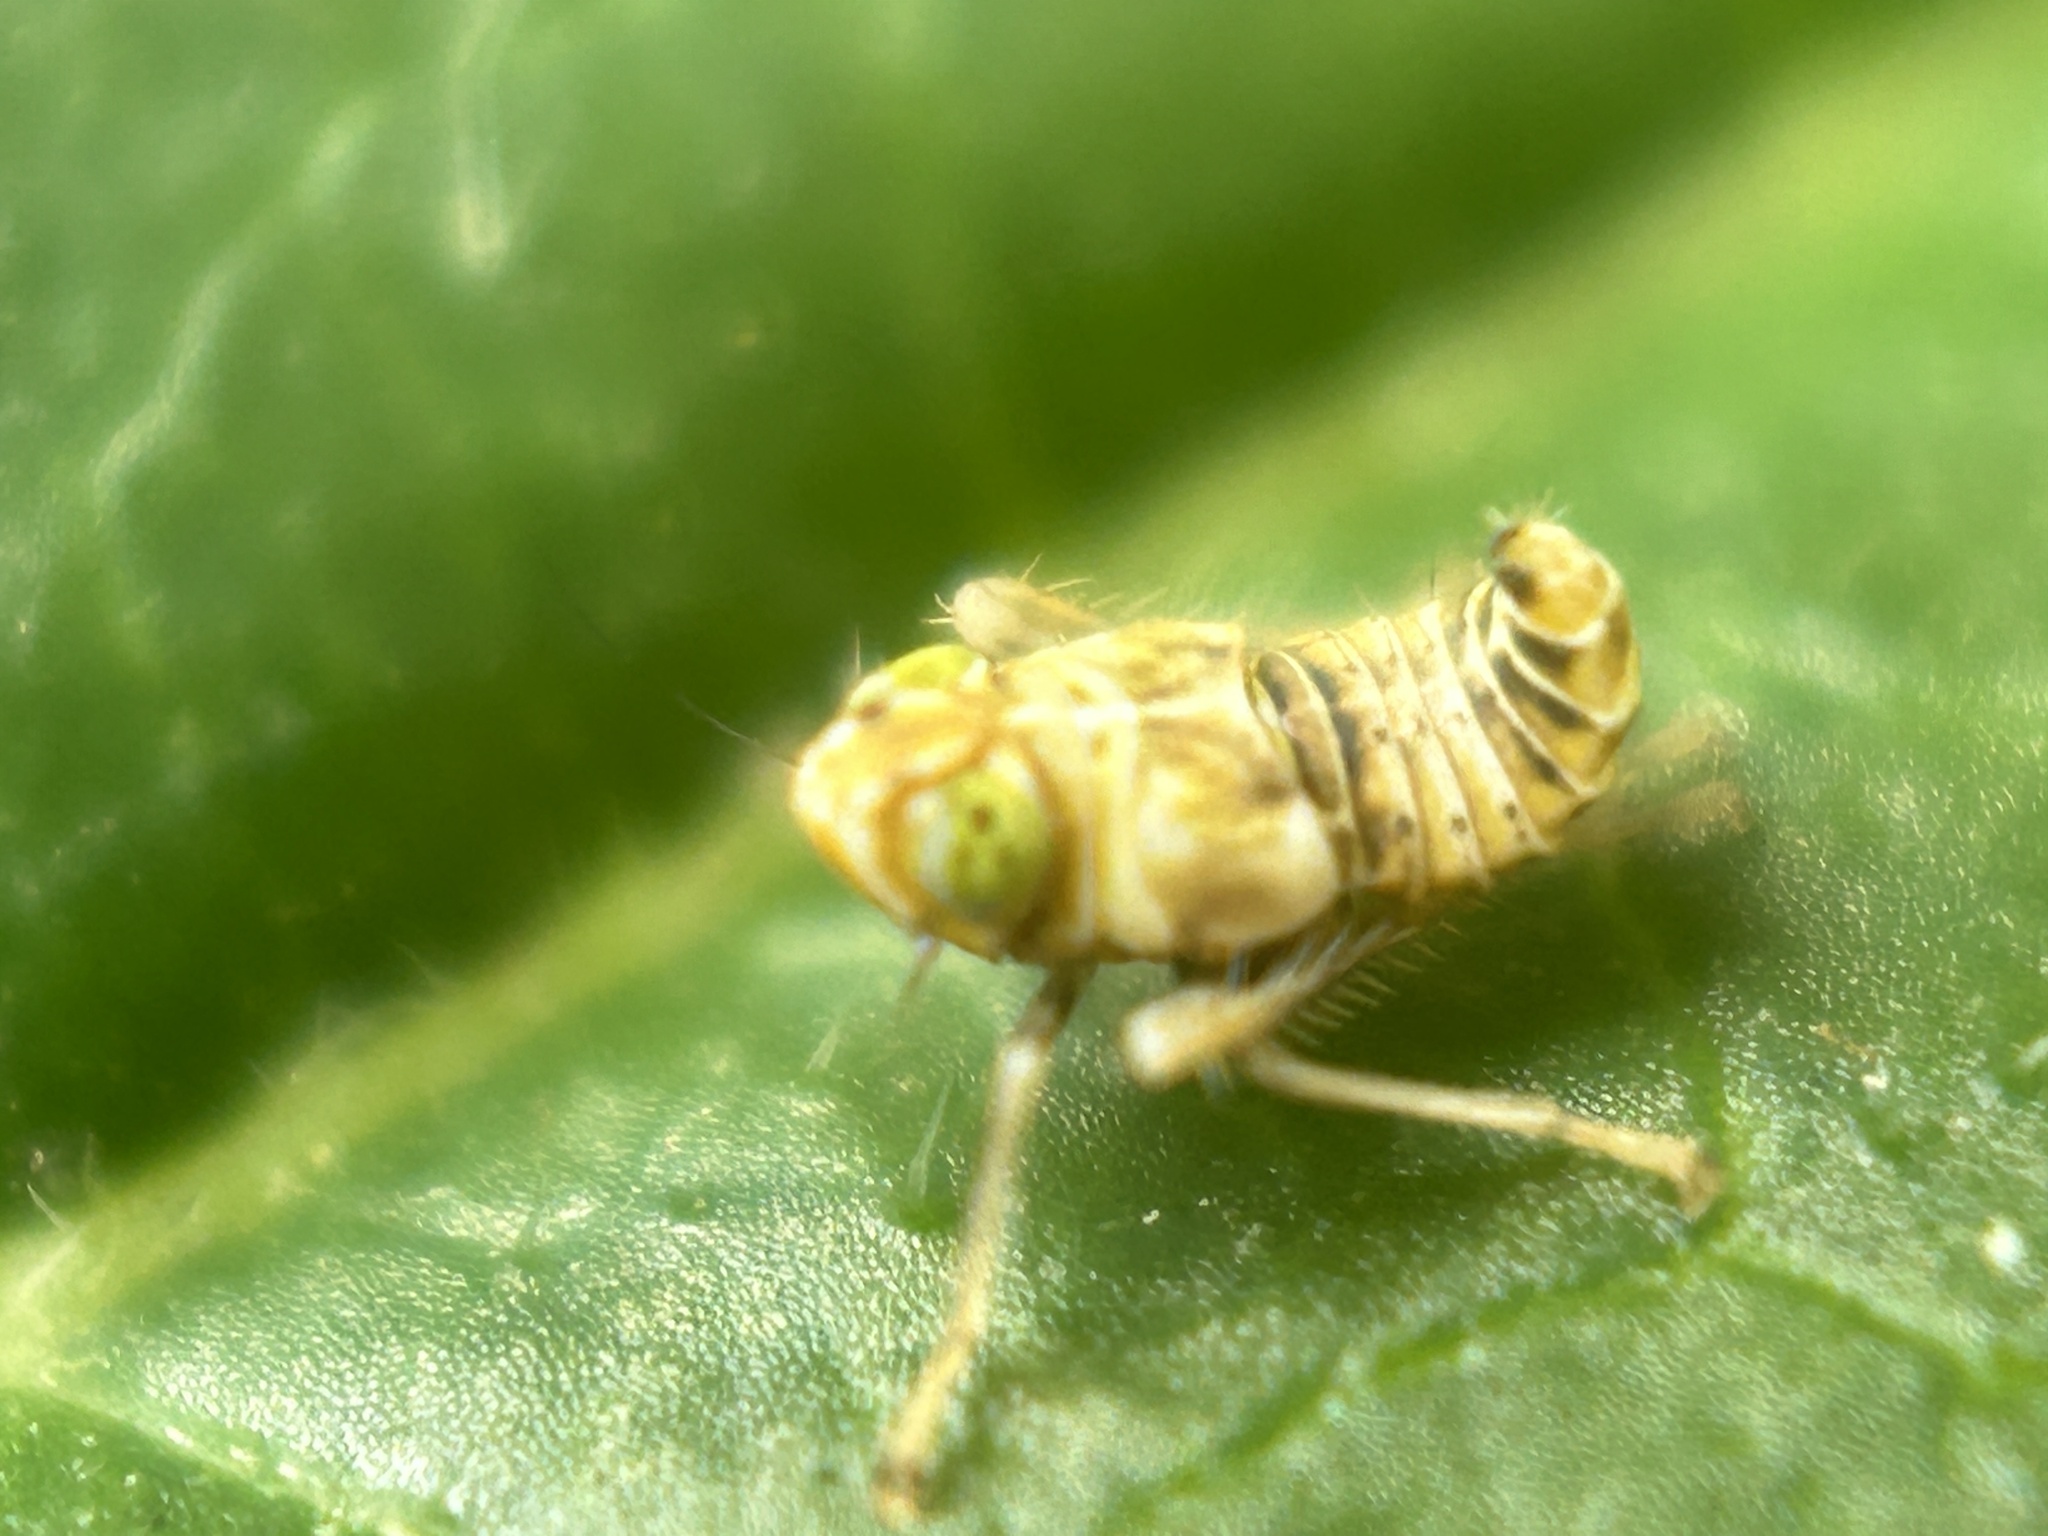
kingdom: Animalia
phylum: Arthropoda
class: Insecta
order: Hemiptera
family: Cicadellidae
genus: Jikradia
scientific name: Jikradia olitoria
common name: Coppery leafhopper
